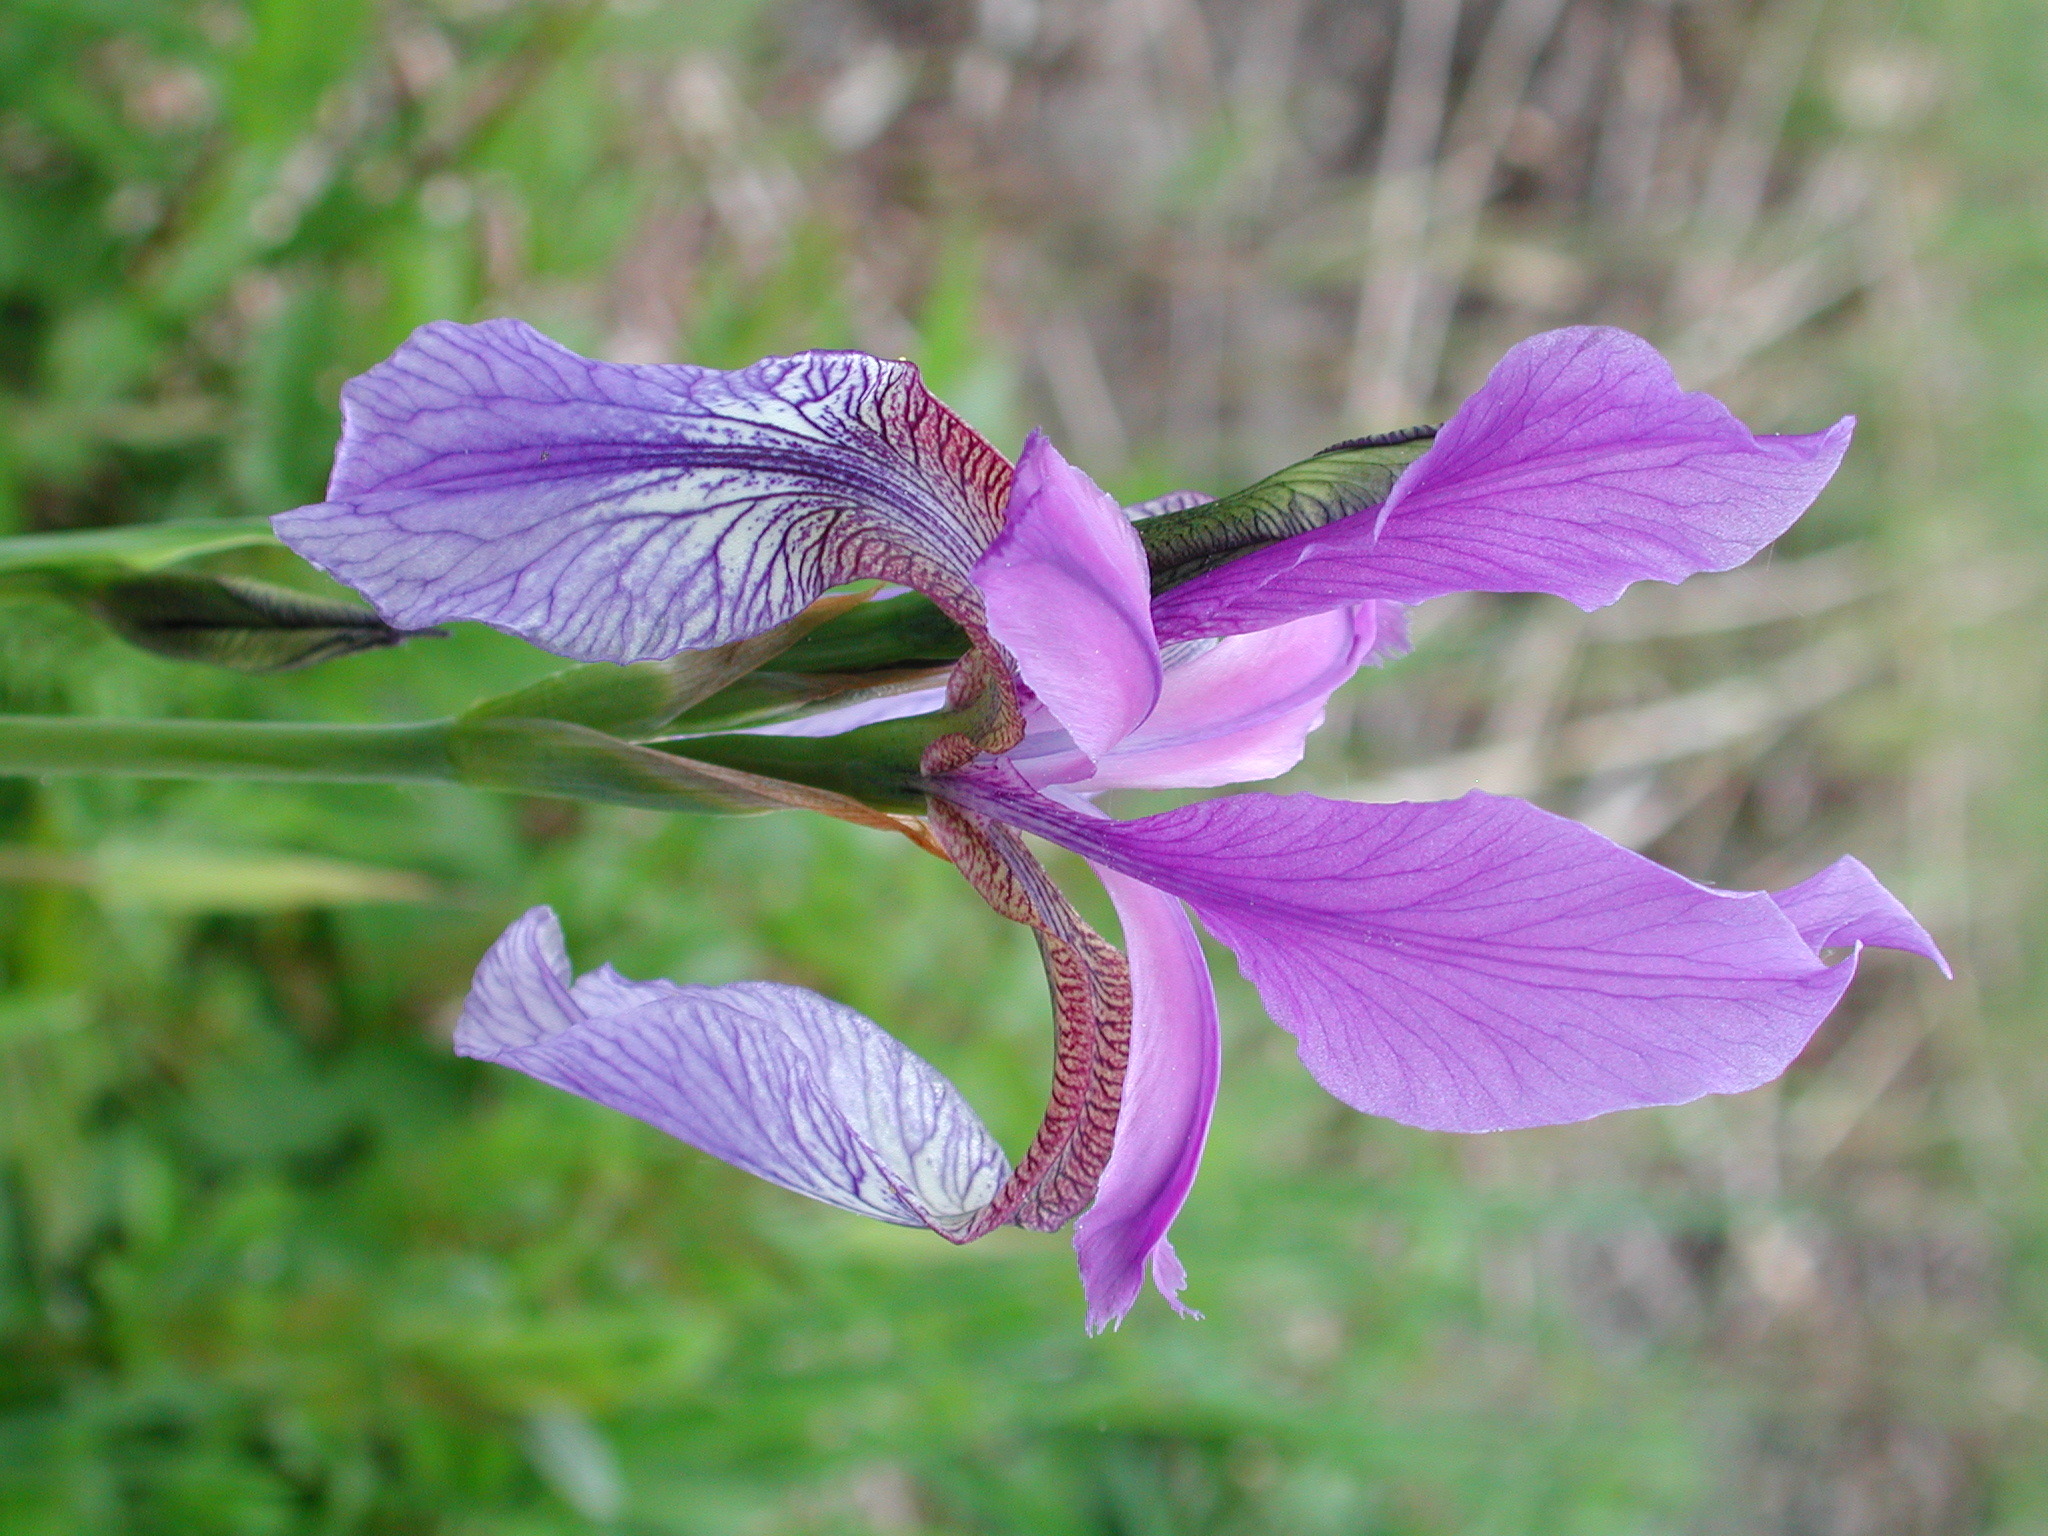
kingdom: Plantae
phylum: Tracheophyta
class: Liliopsida
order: Asparagales
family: Iridaceae
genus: Iris
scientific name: Iris sibirica
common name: Siberian iris
